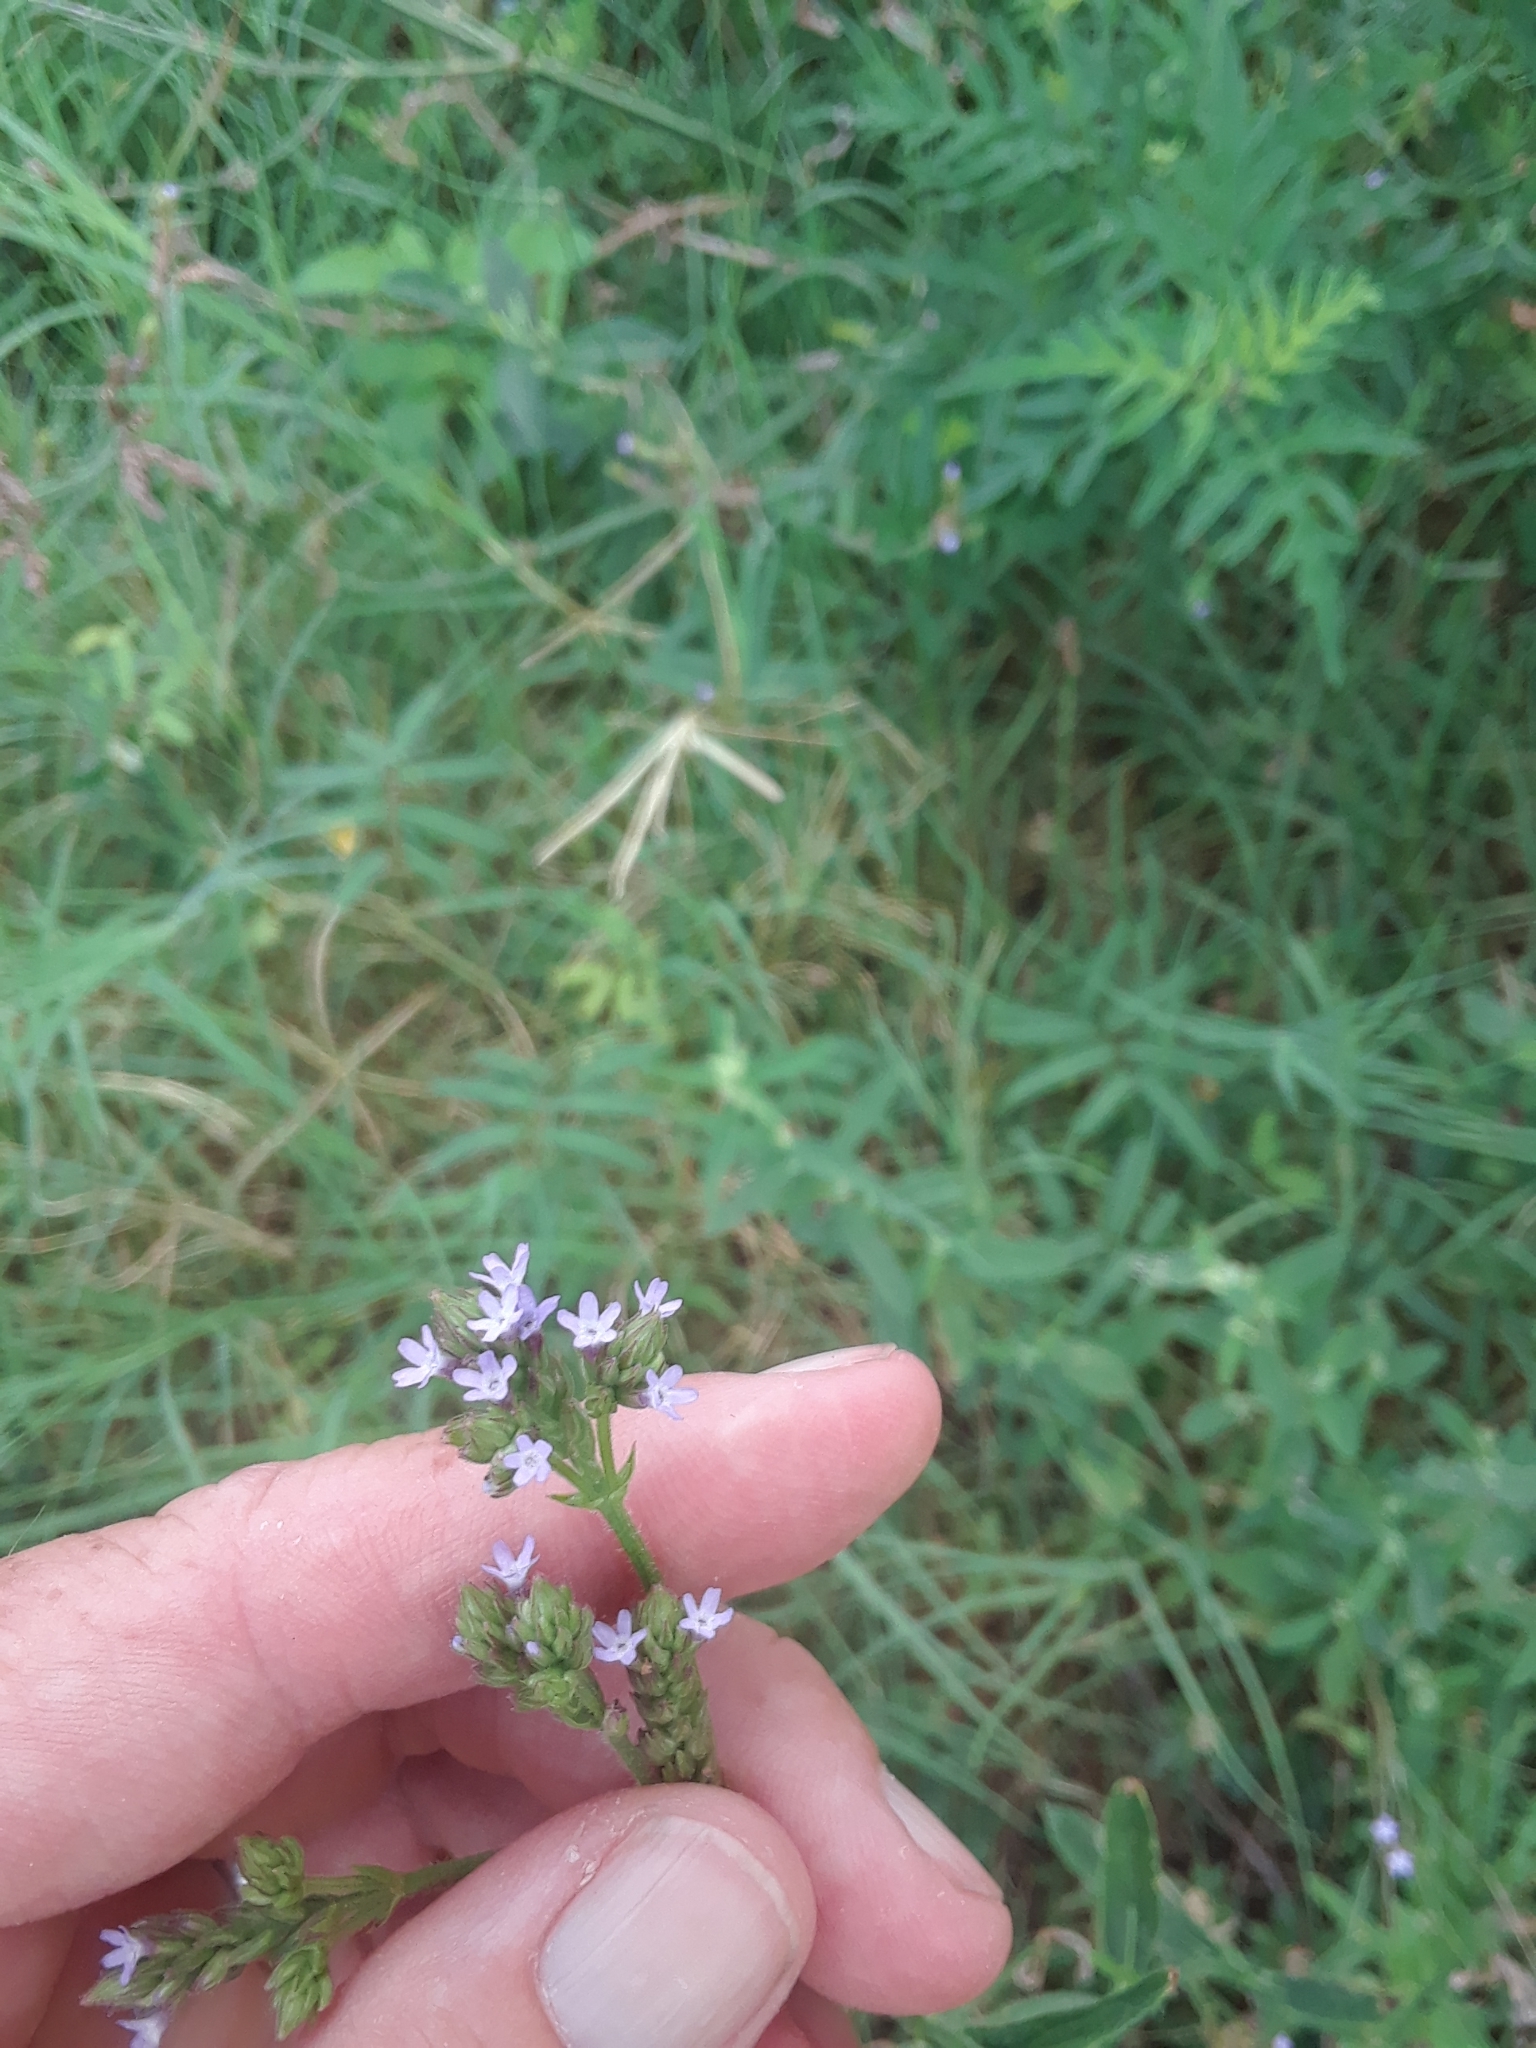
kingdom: Plantae
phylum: Tracheophyta
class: Magnoliopsida
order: Lamiales
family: Verbenaceae
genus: Verbena
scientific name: Verbena brasiliensis
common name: Brazilian vervain
